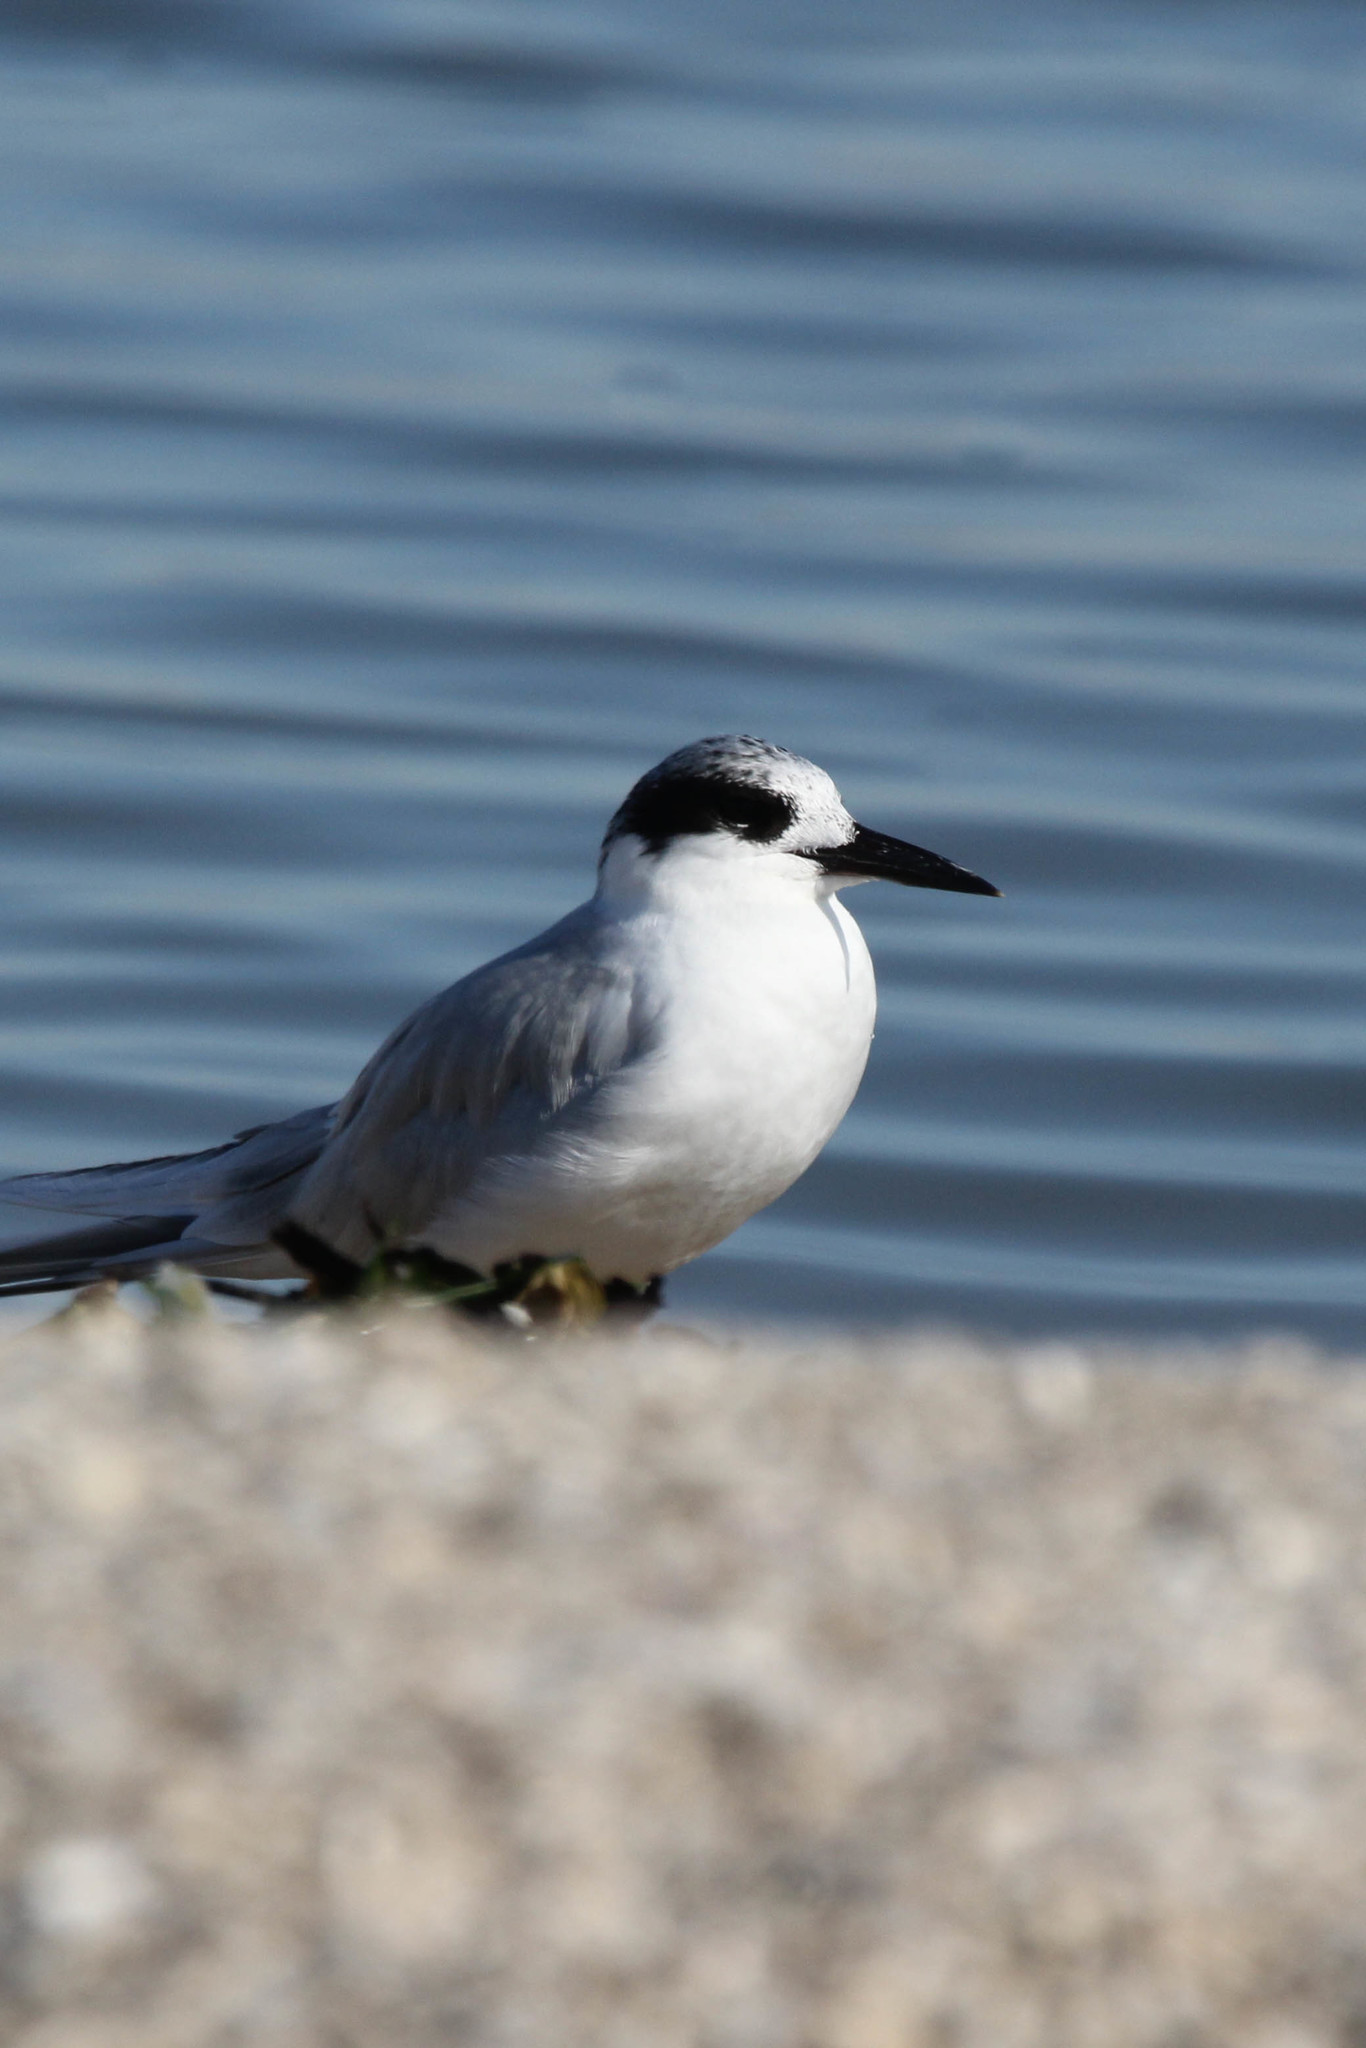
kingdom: Animalia
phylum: Chordata
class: Aves
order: Charadriiformes
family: Laridae
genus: Sterna
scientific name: Sterna forsteri
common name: Forster's tern
